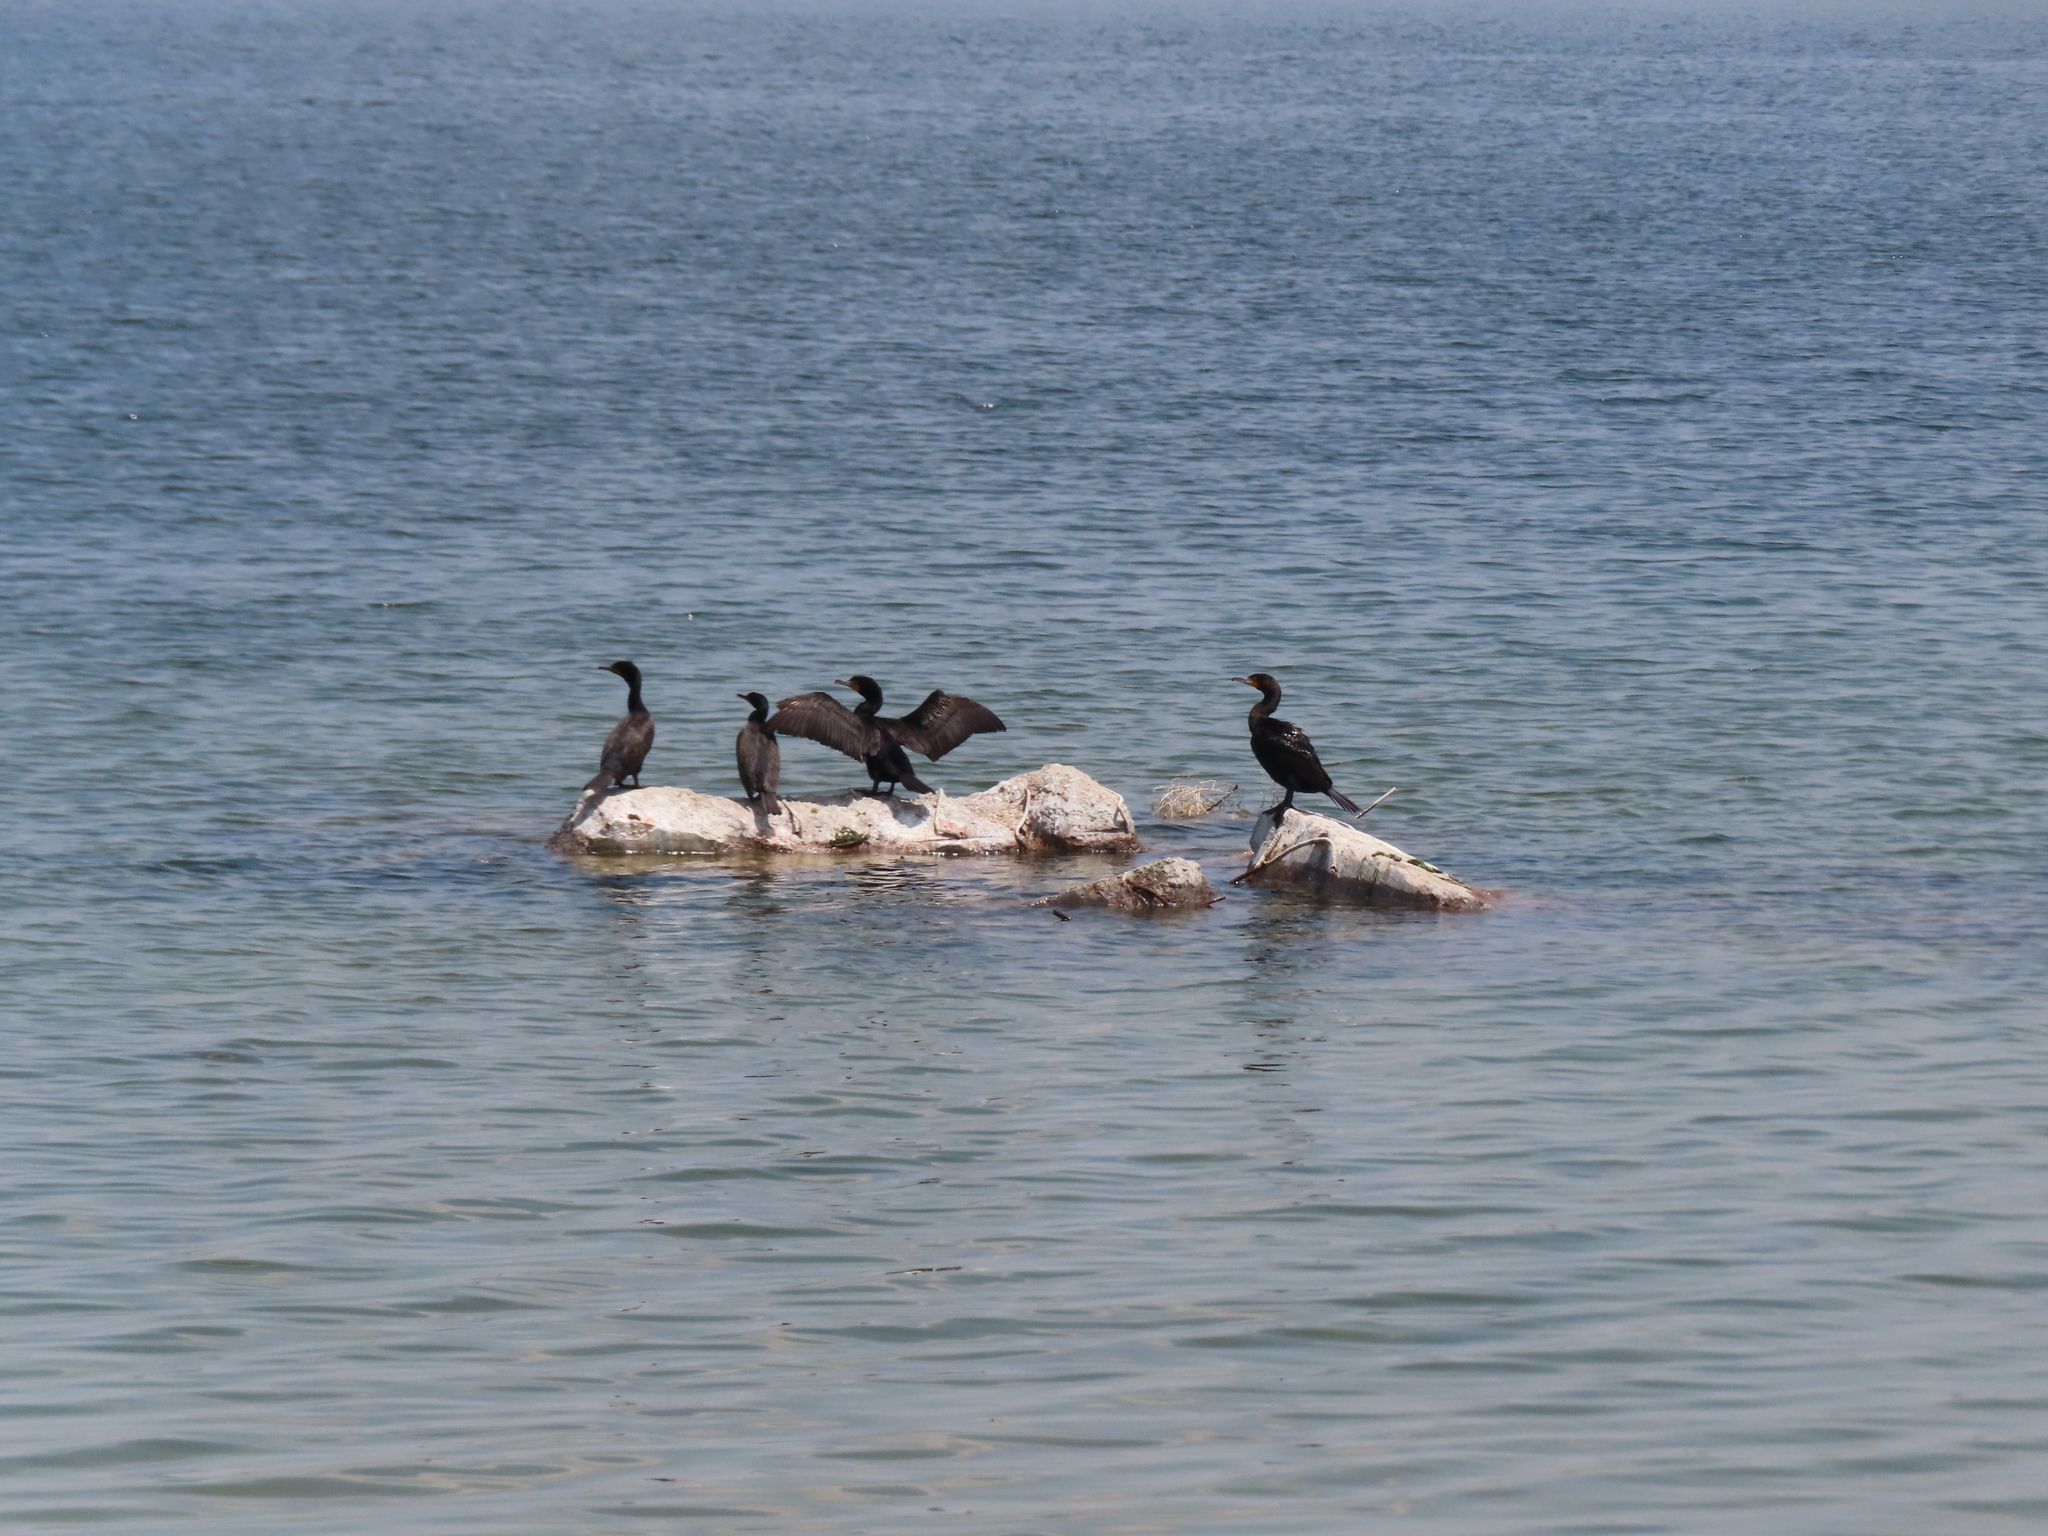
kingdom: Animalia
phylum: Chordata
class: Aves
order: Suliformes
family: Phalacrocoracidae
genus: Phalacrocorax
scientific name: Phalacrocorax auritus
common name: Double-crested cormorant
